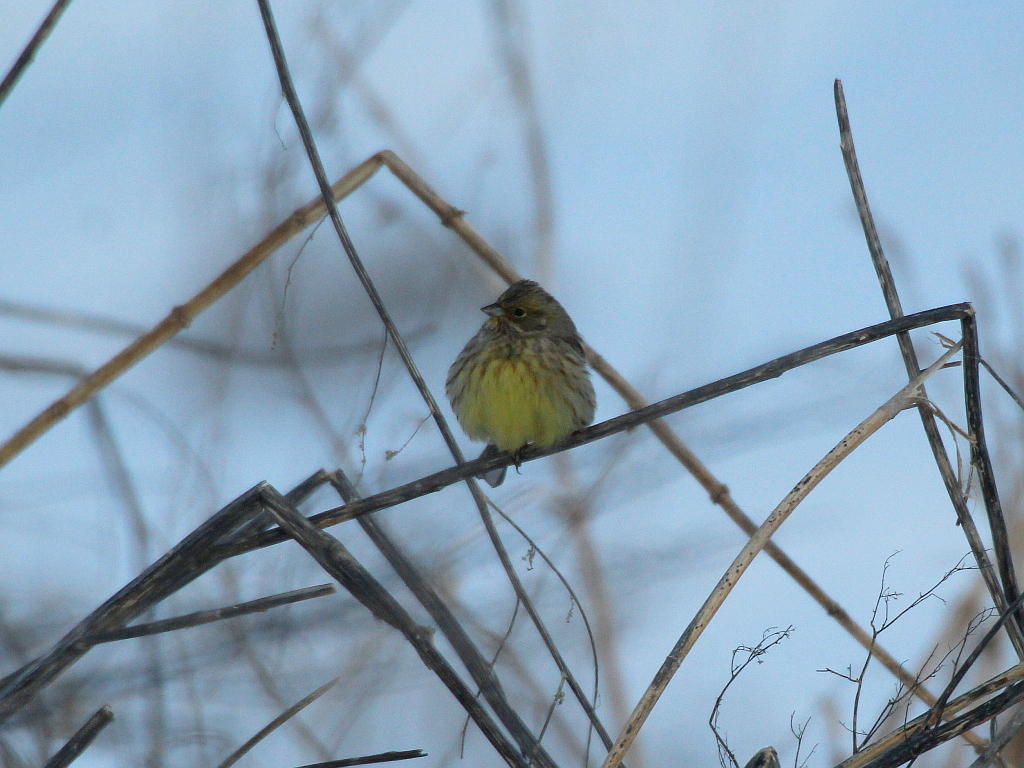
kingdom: Animalia
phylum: Chordata
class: Aves
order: Passeriformes
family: Emberizidae
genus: Emberiza
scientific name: Emberiza citrinella
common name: Yellowhammer
